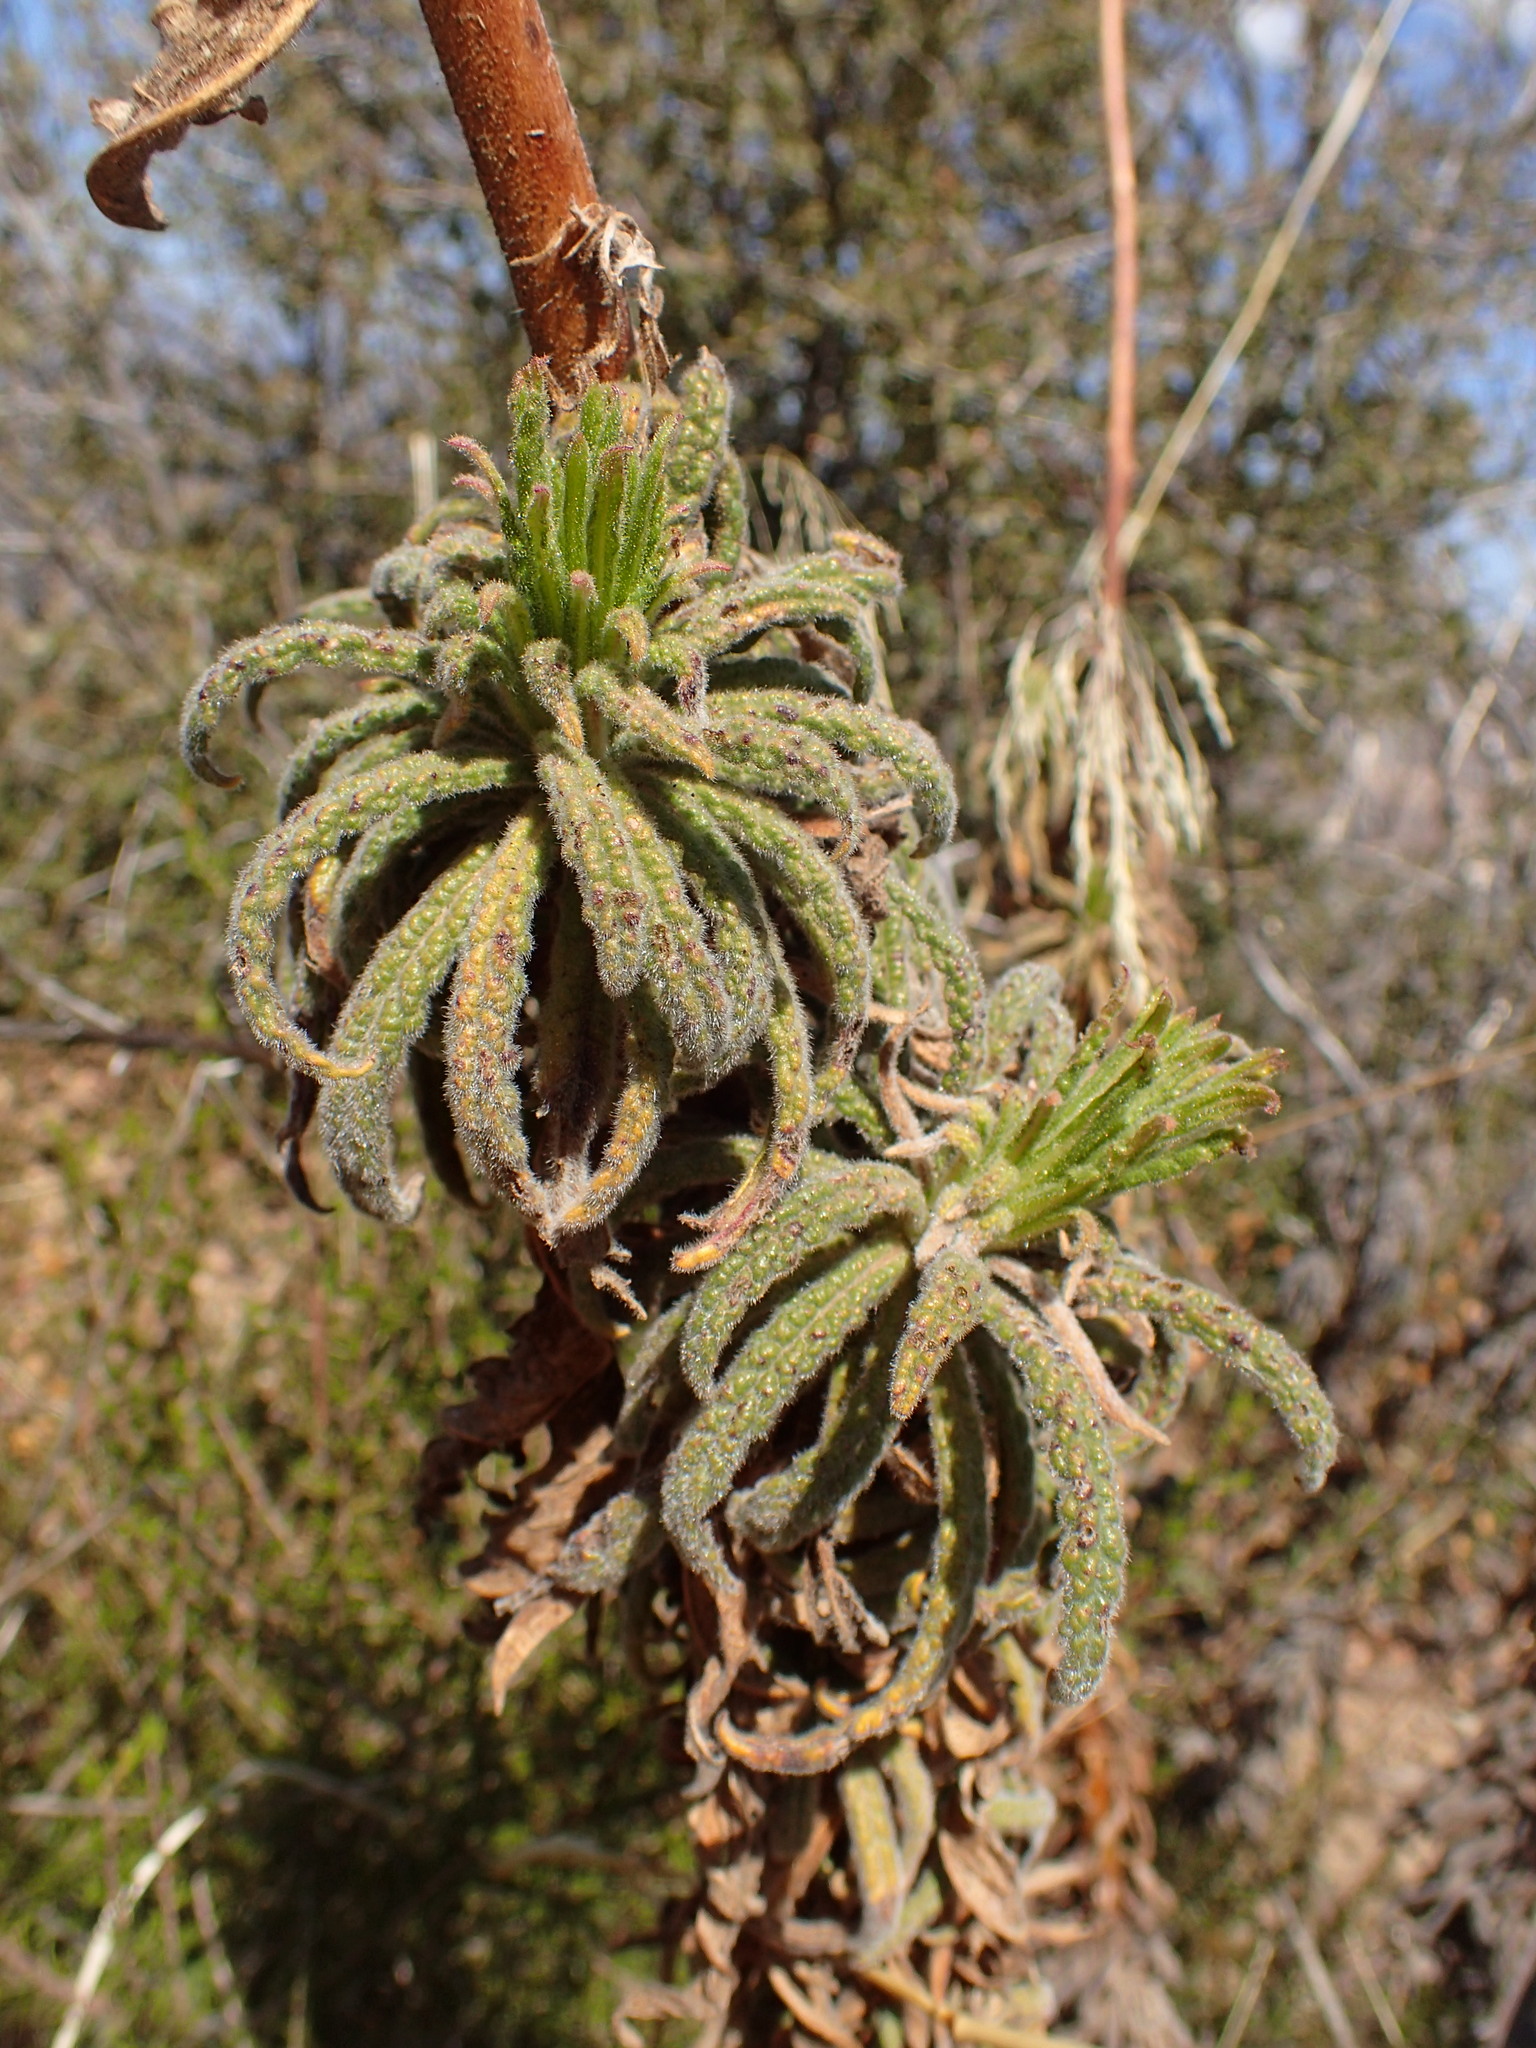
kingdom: Plantae
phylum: Tracheophyta
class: Magnoliopsida
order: Boraginales
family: Namaceae
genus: Turricula
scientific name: Turricula parryi
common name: Poodle-dog-bush
